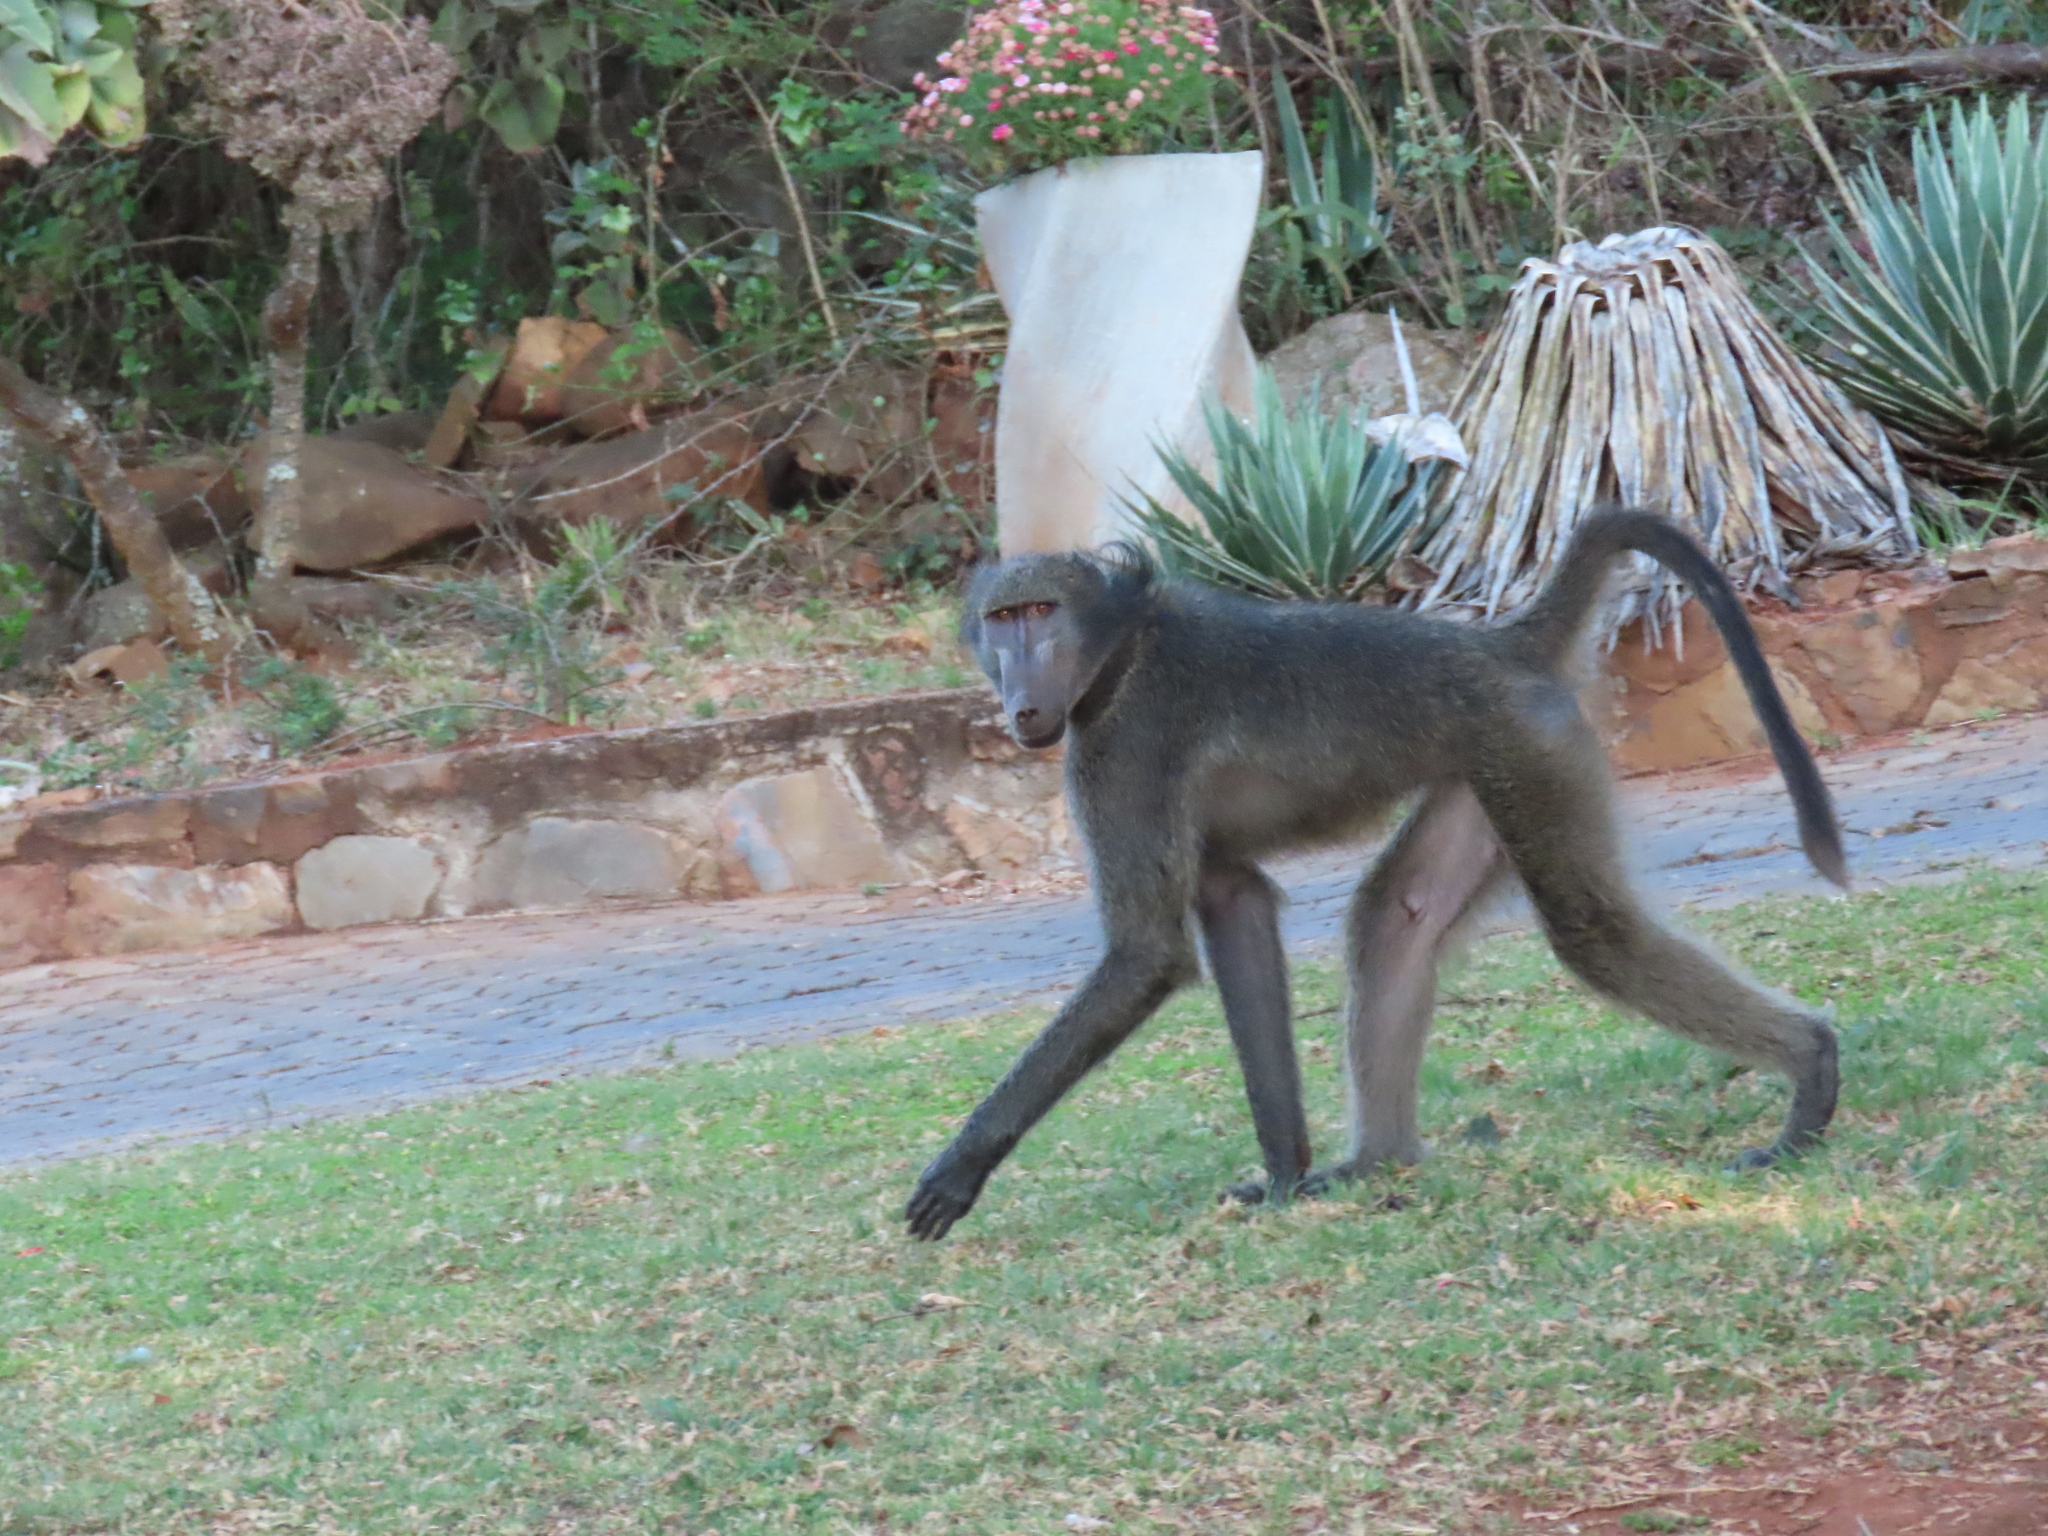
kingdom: Animalia
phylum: Chordata
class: Mammalia
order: Primates
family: Cercopithecidae
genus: Papio
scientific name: Papio ursinus
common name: Chacma baboon
